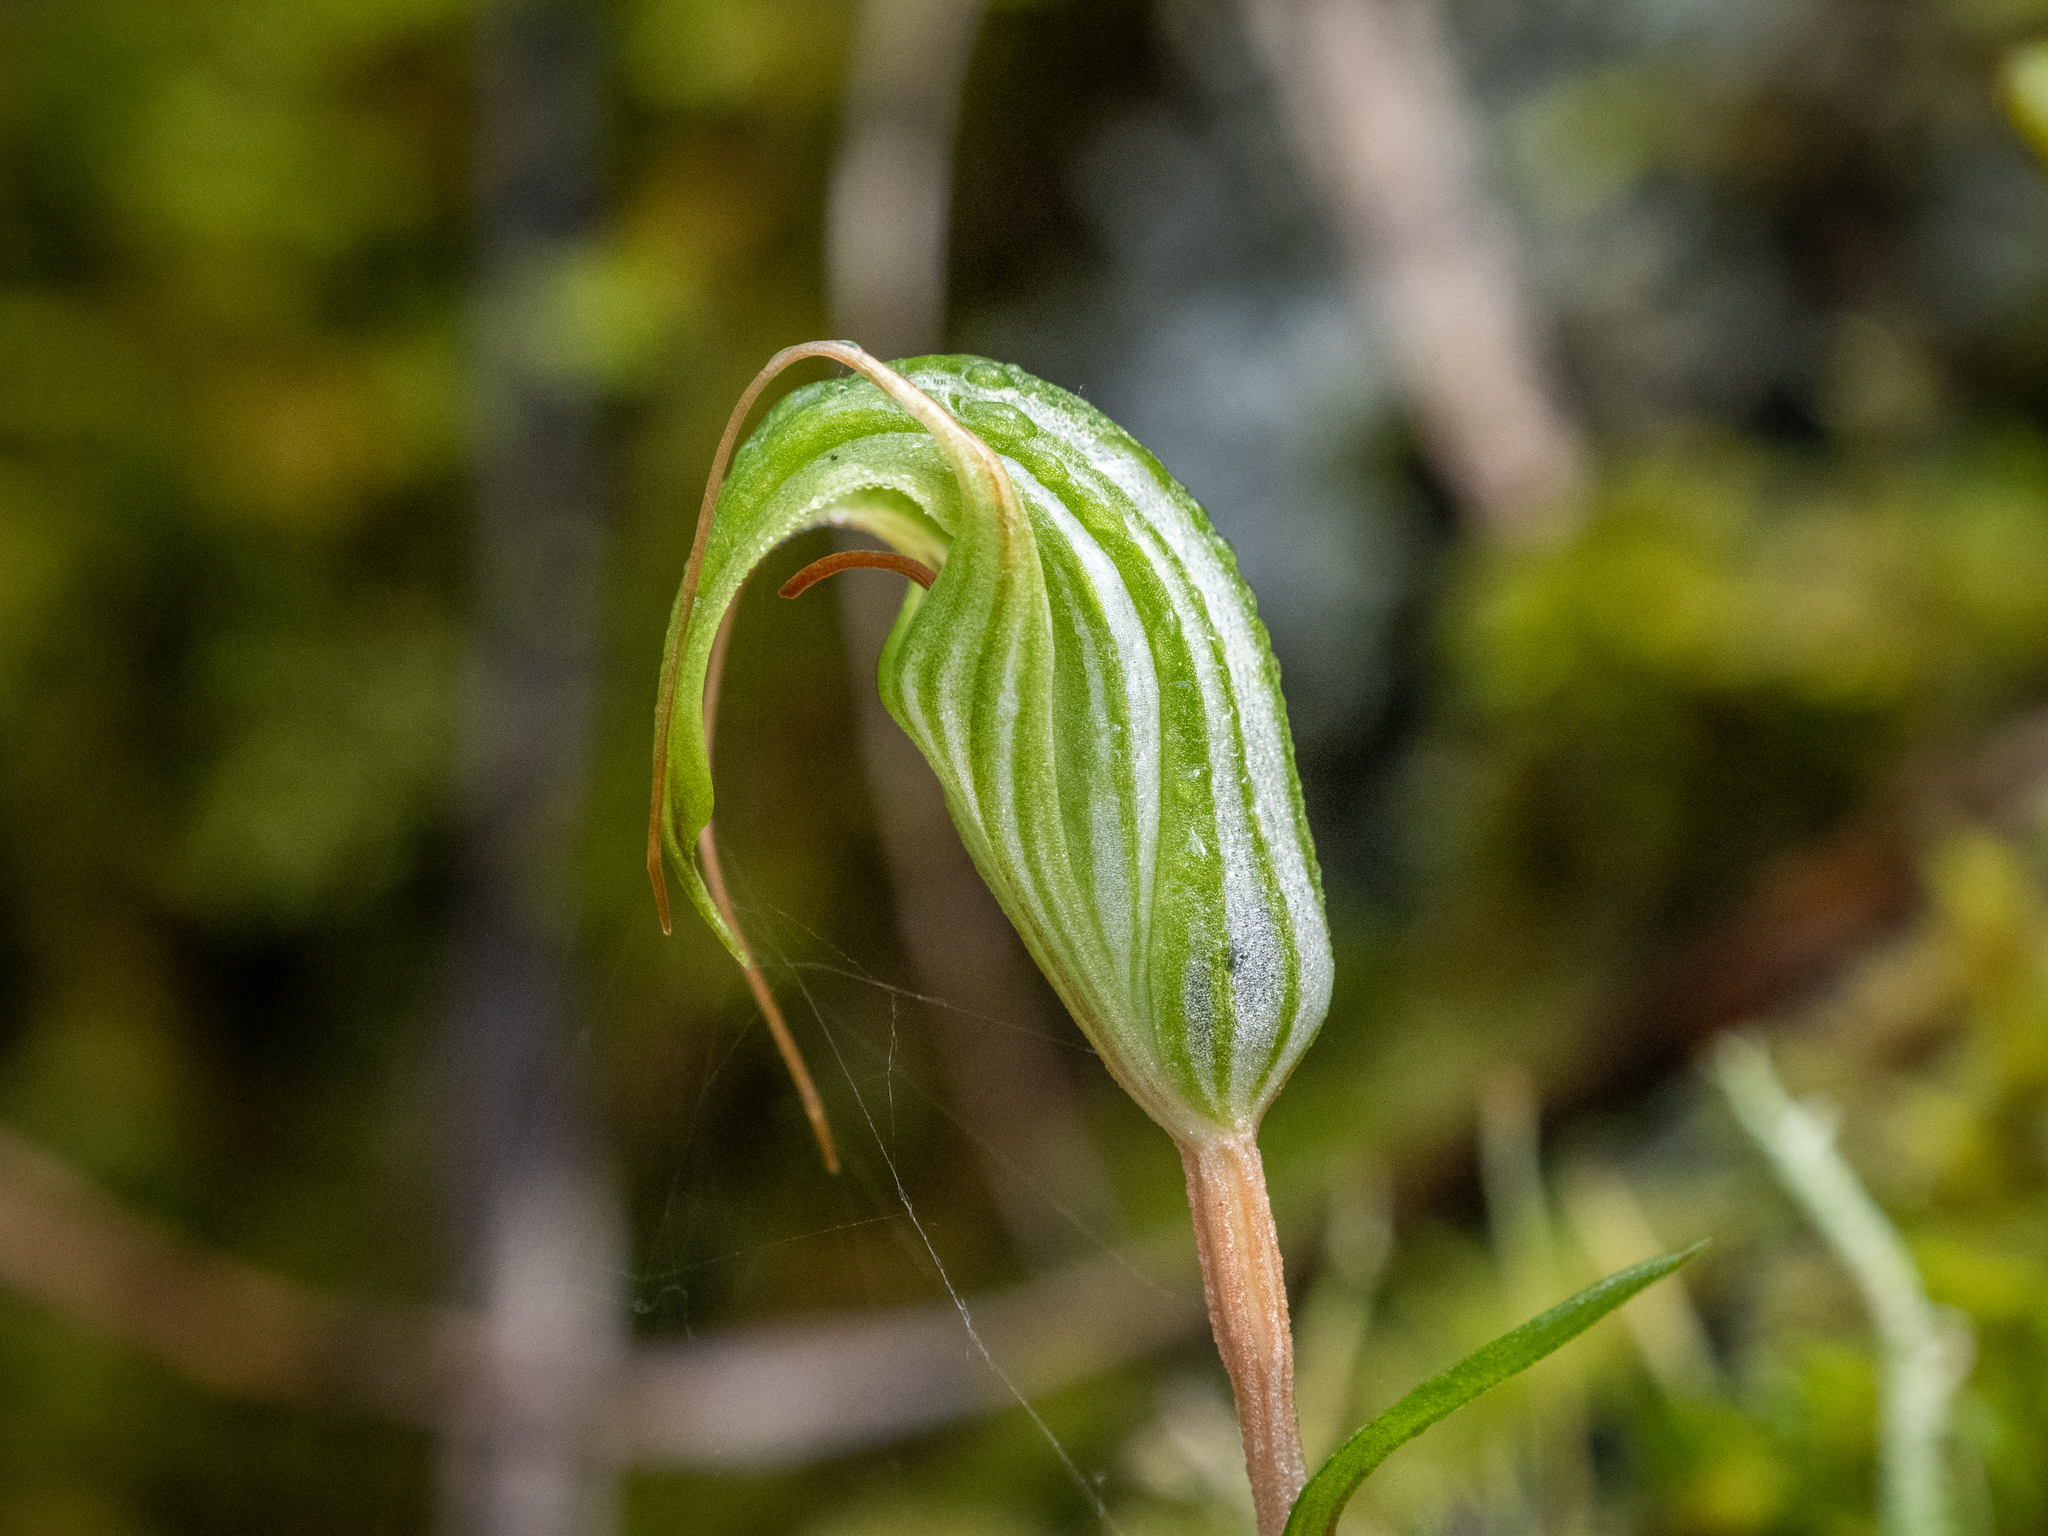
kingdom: Plantae
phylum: Tracheophyta
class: Liliopsida
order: Asparagales
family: Orchidaceae
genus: Pterostylis
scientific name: Pterostylis alobula
